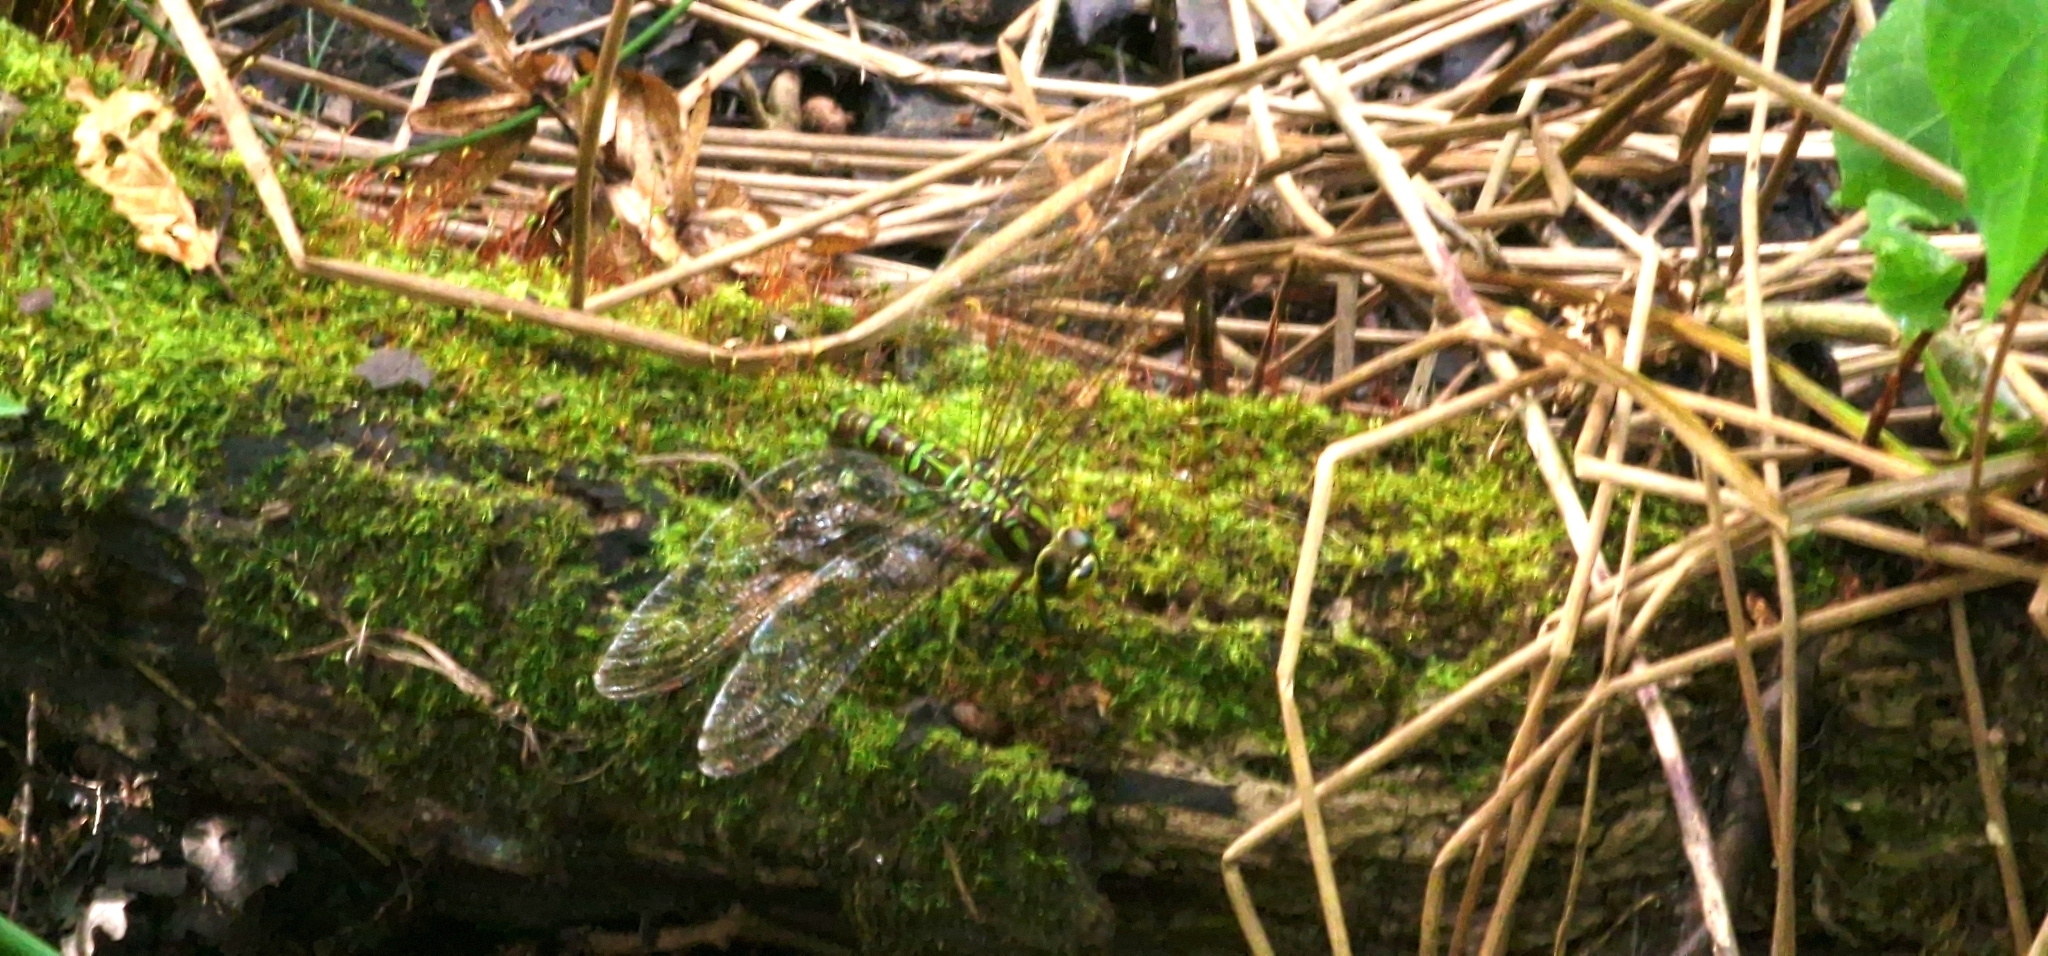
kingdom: Animalia
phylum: Arthropoda
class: Insecta
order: Odonata
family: Aeshnidae
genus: Aeshna
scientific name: Aeshna cyanea
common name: Southern hawker
